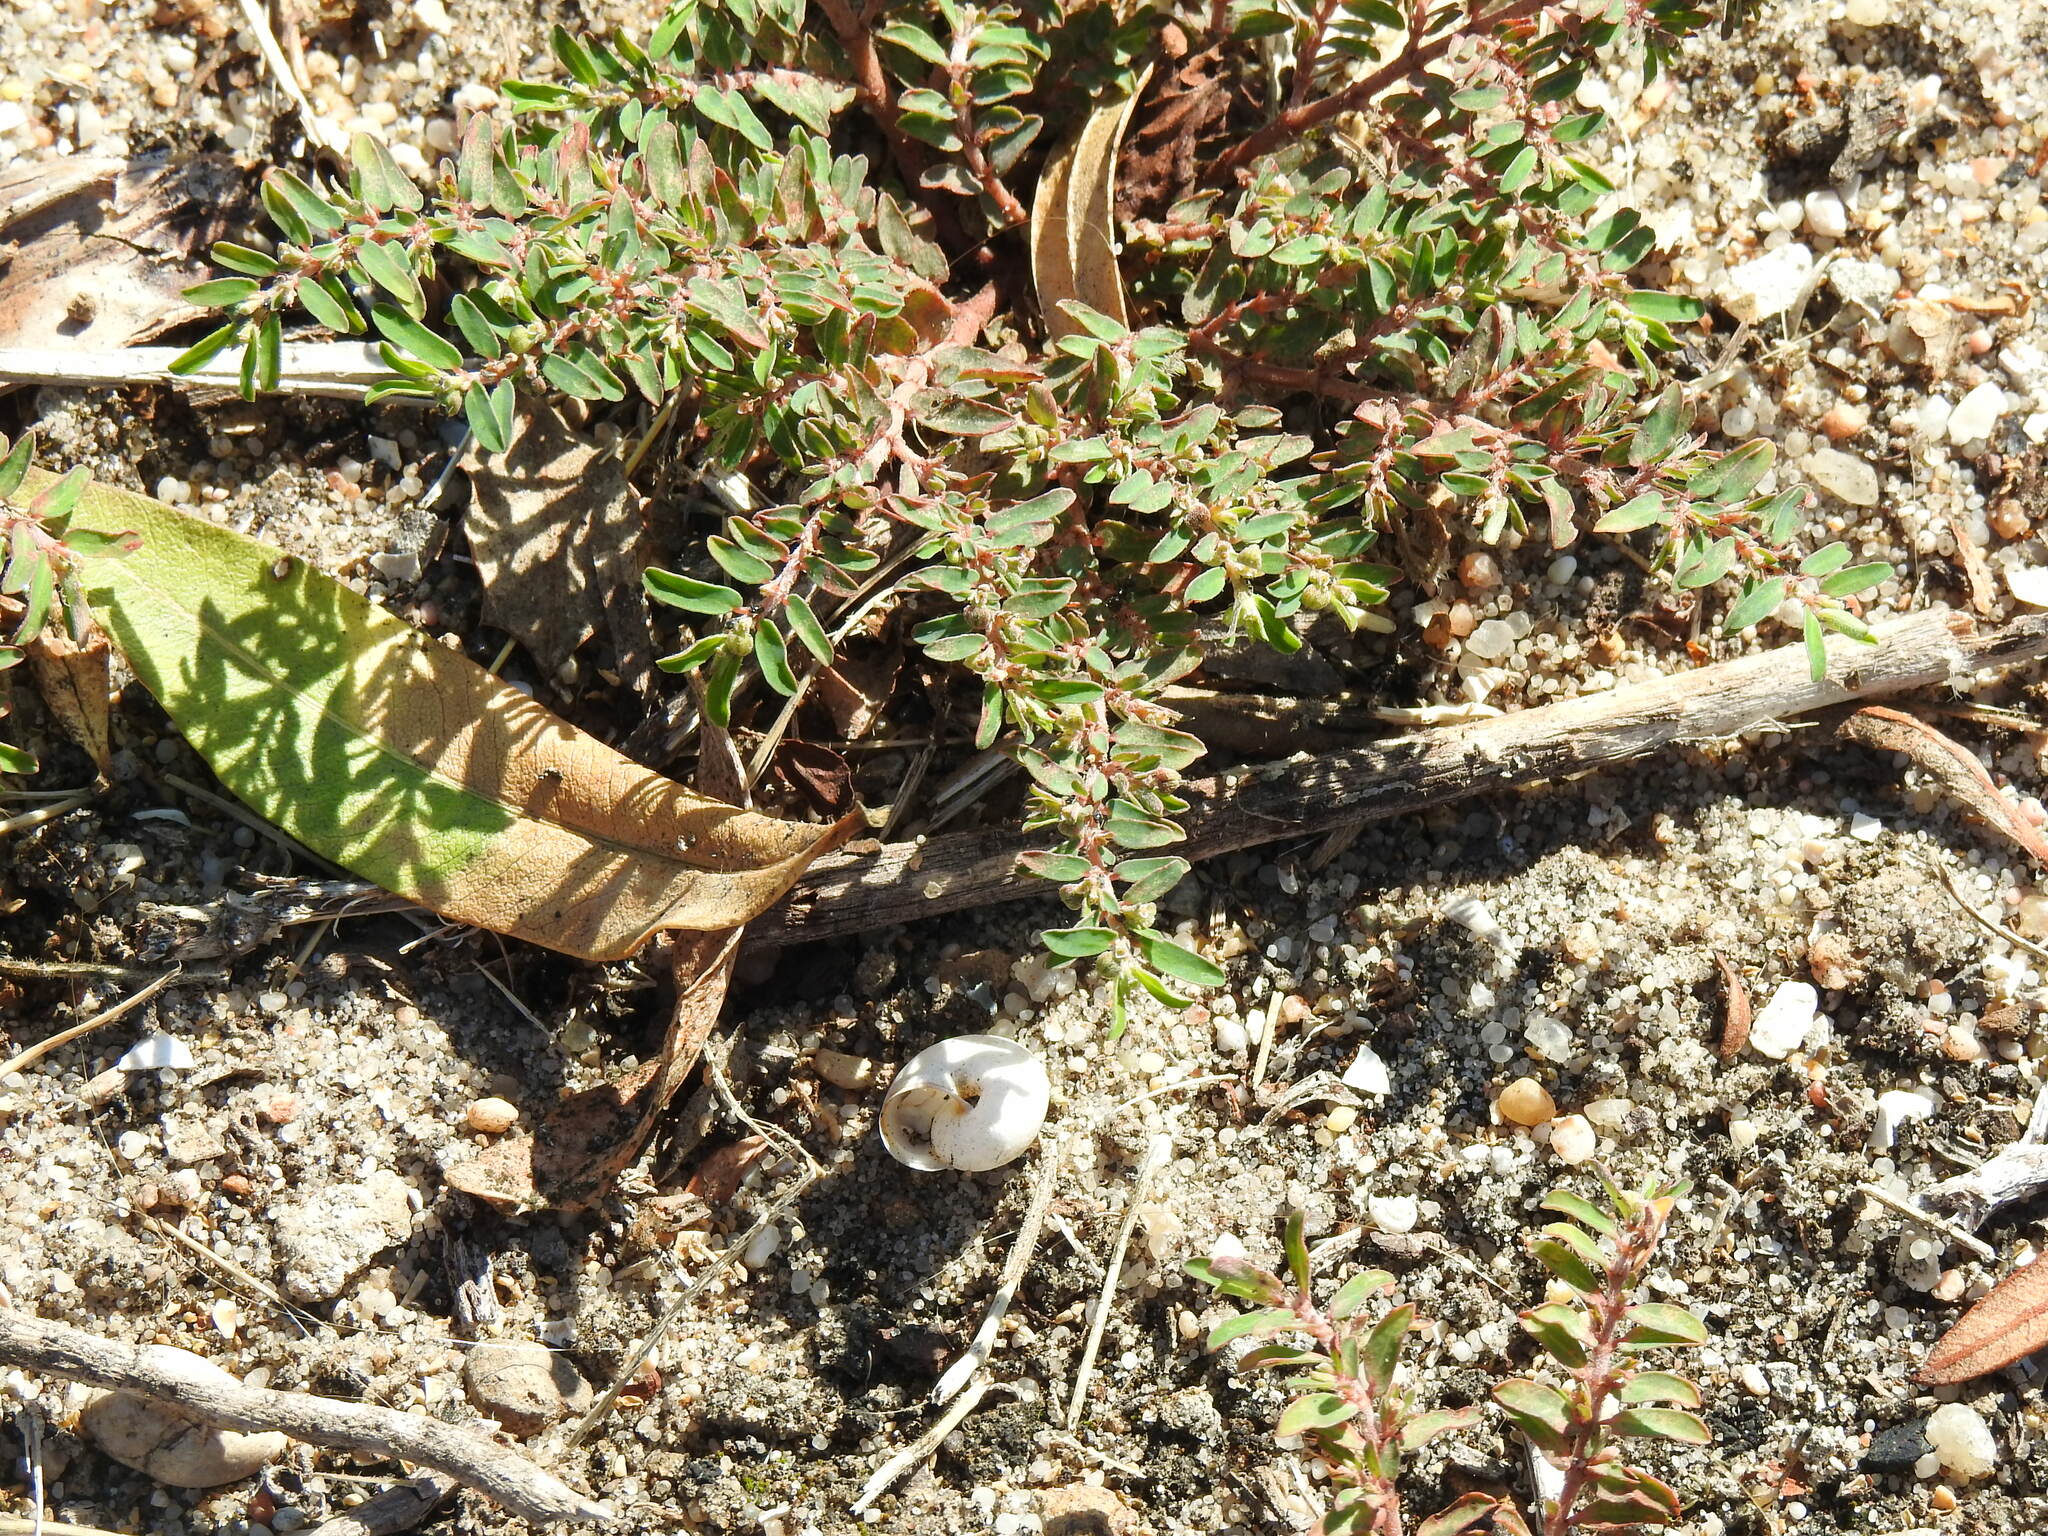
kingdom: Plantae
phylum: Tracheophyta
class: Magnoliopsida
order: Malpighiales
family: Euphorbiaceae
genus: Euphorbia
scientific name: Euphorbia maculata
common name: Spotted spurge
